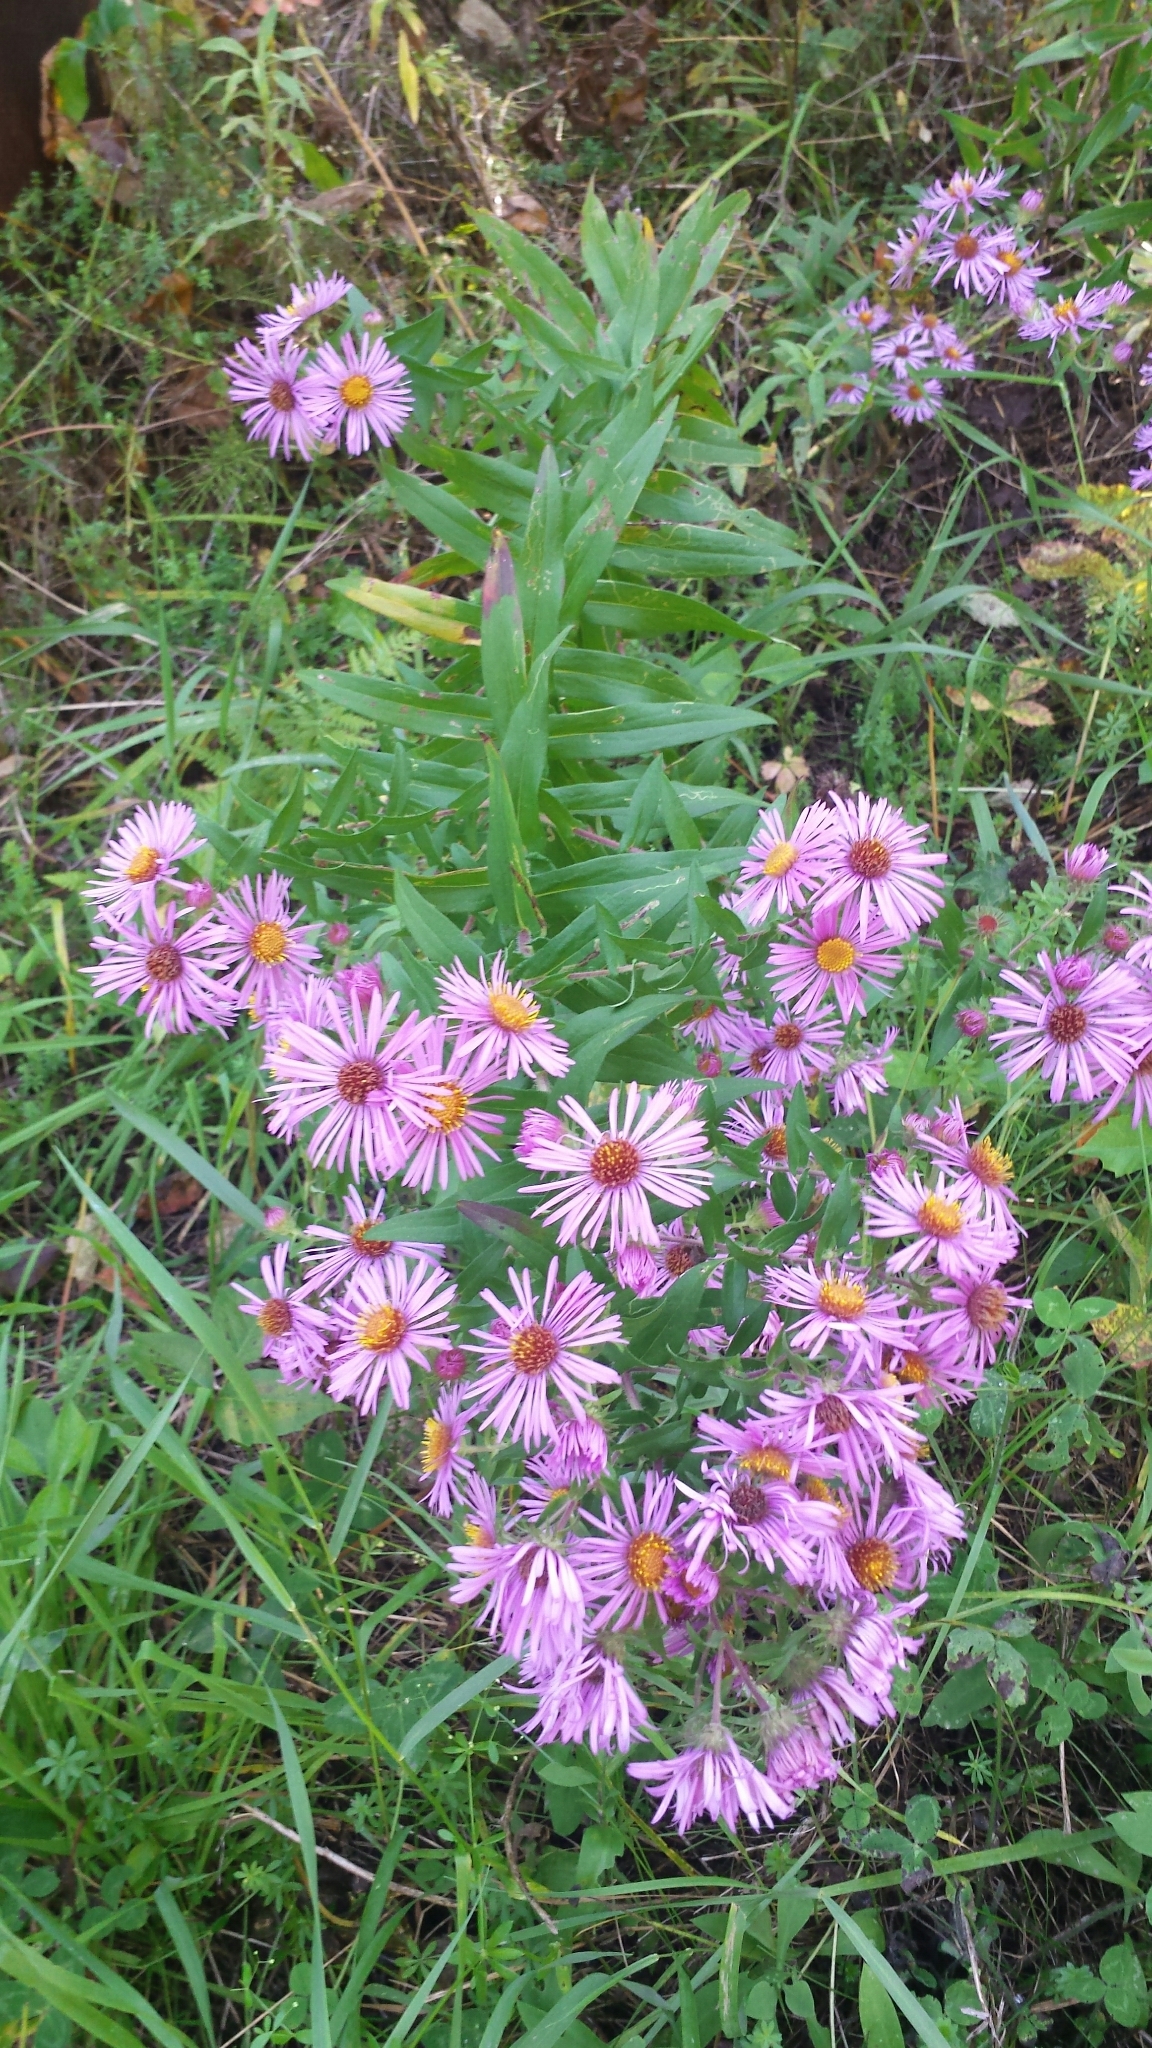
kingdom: Plantae
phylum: Tracheophyta
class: Magnoliopsida
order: Asterales
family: Asteraceae
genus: Symphyotrichum
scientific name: Symphyotrichum novae-angliae
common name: Michaelmas daisy
